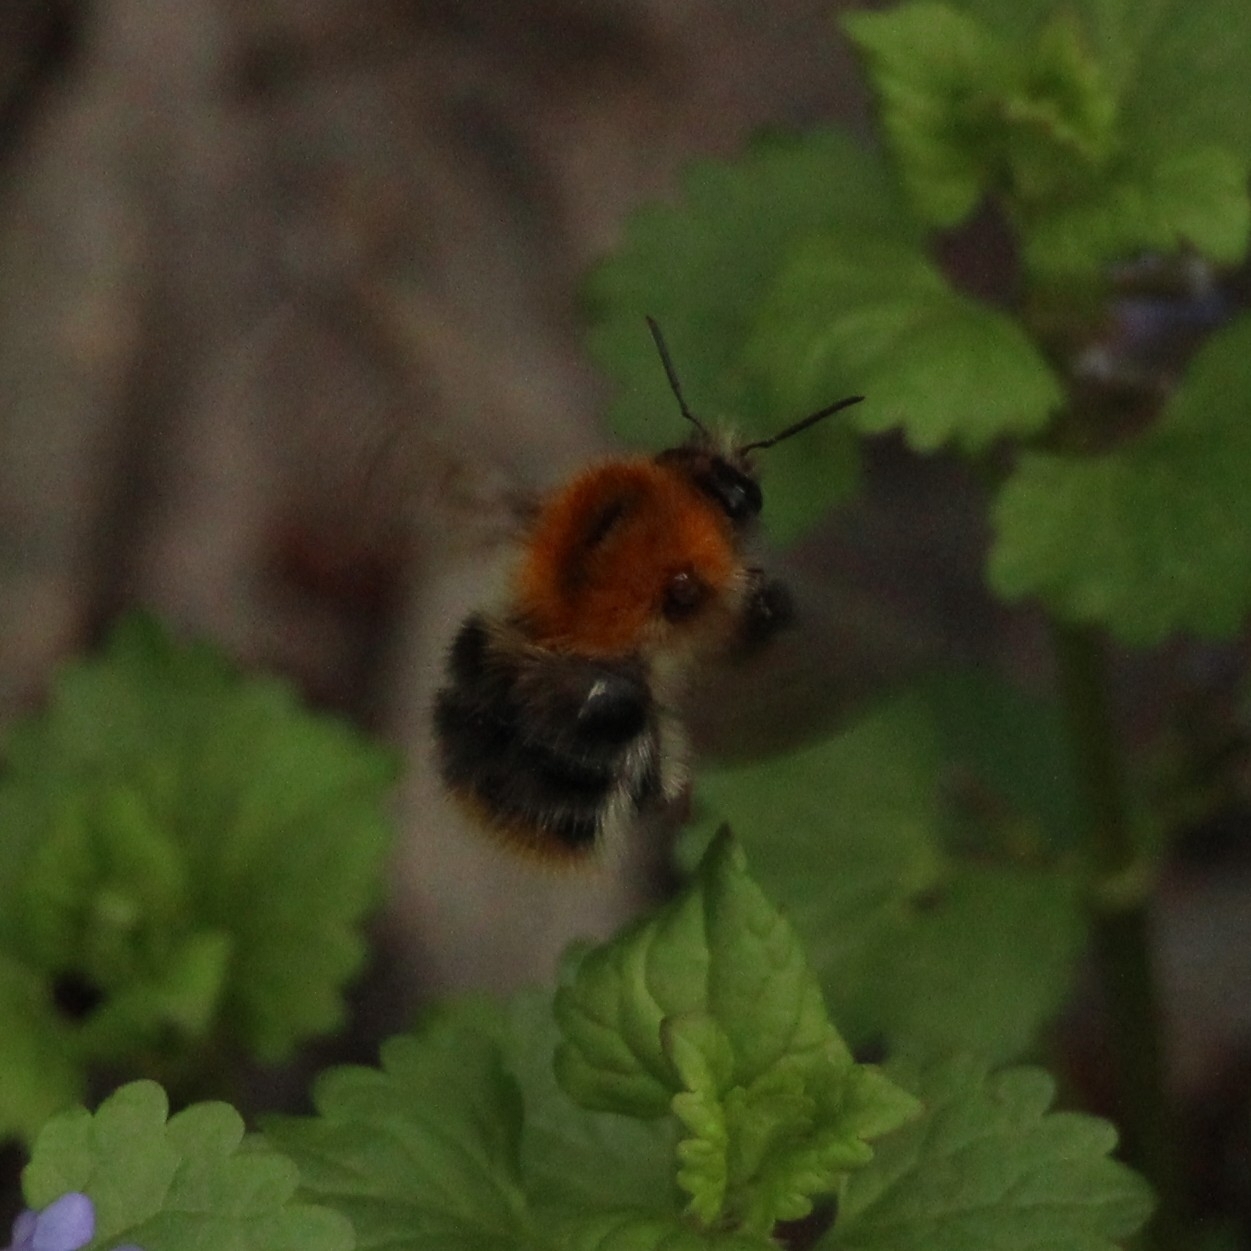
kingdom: Animalia
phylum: Arthropoda
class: Insecta
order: Hymenoptera
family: Apidae
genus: Bombus
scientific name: Bombus pascuorum
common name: Common carder bee
